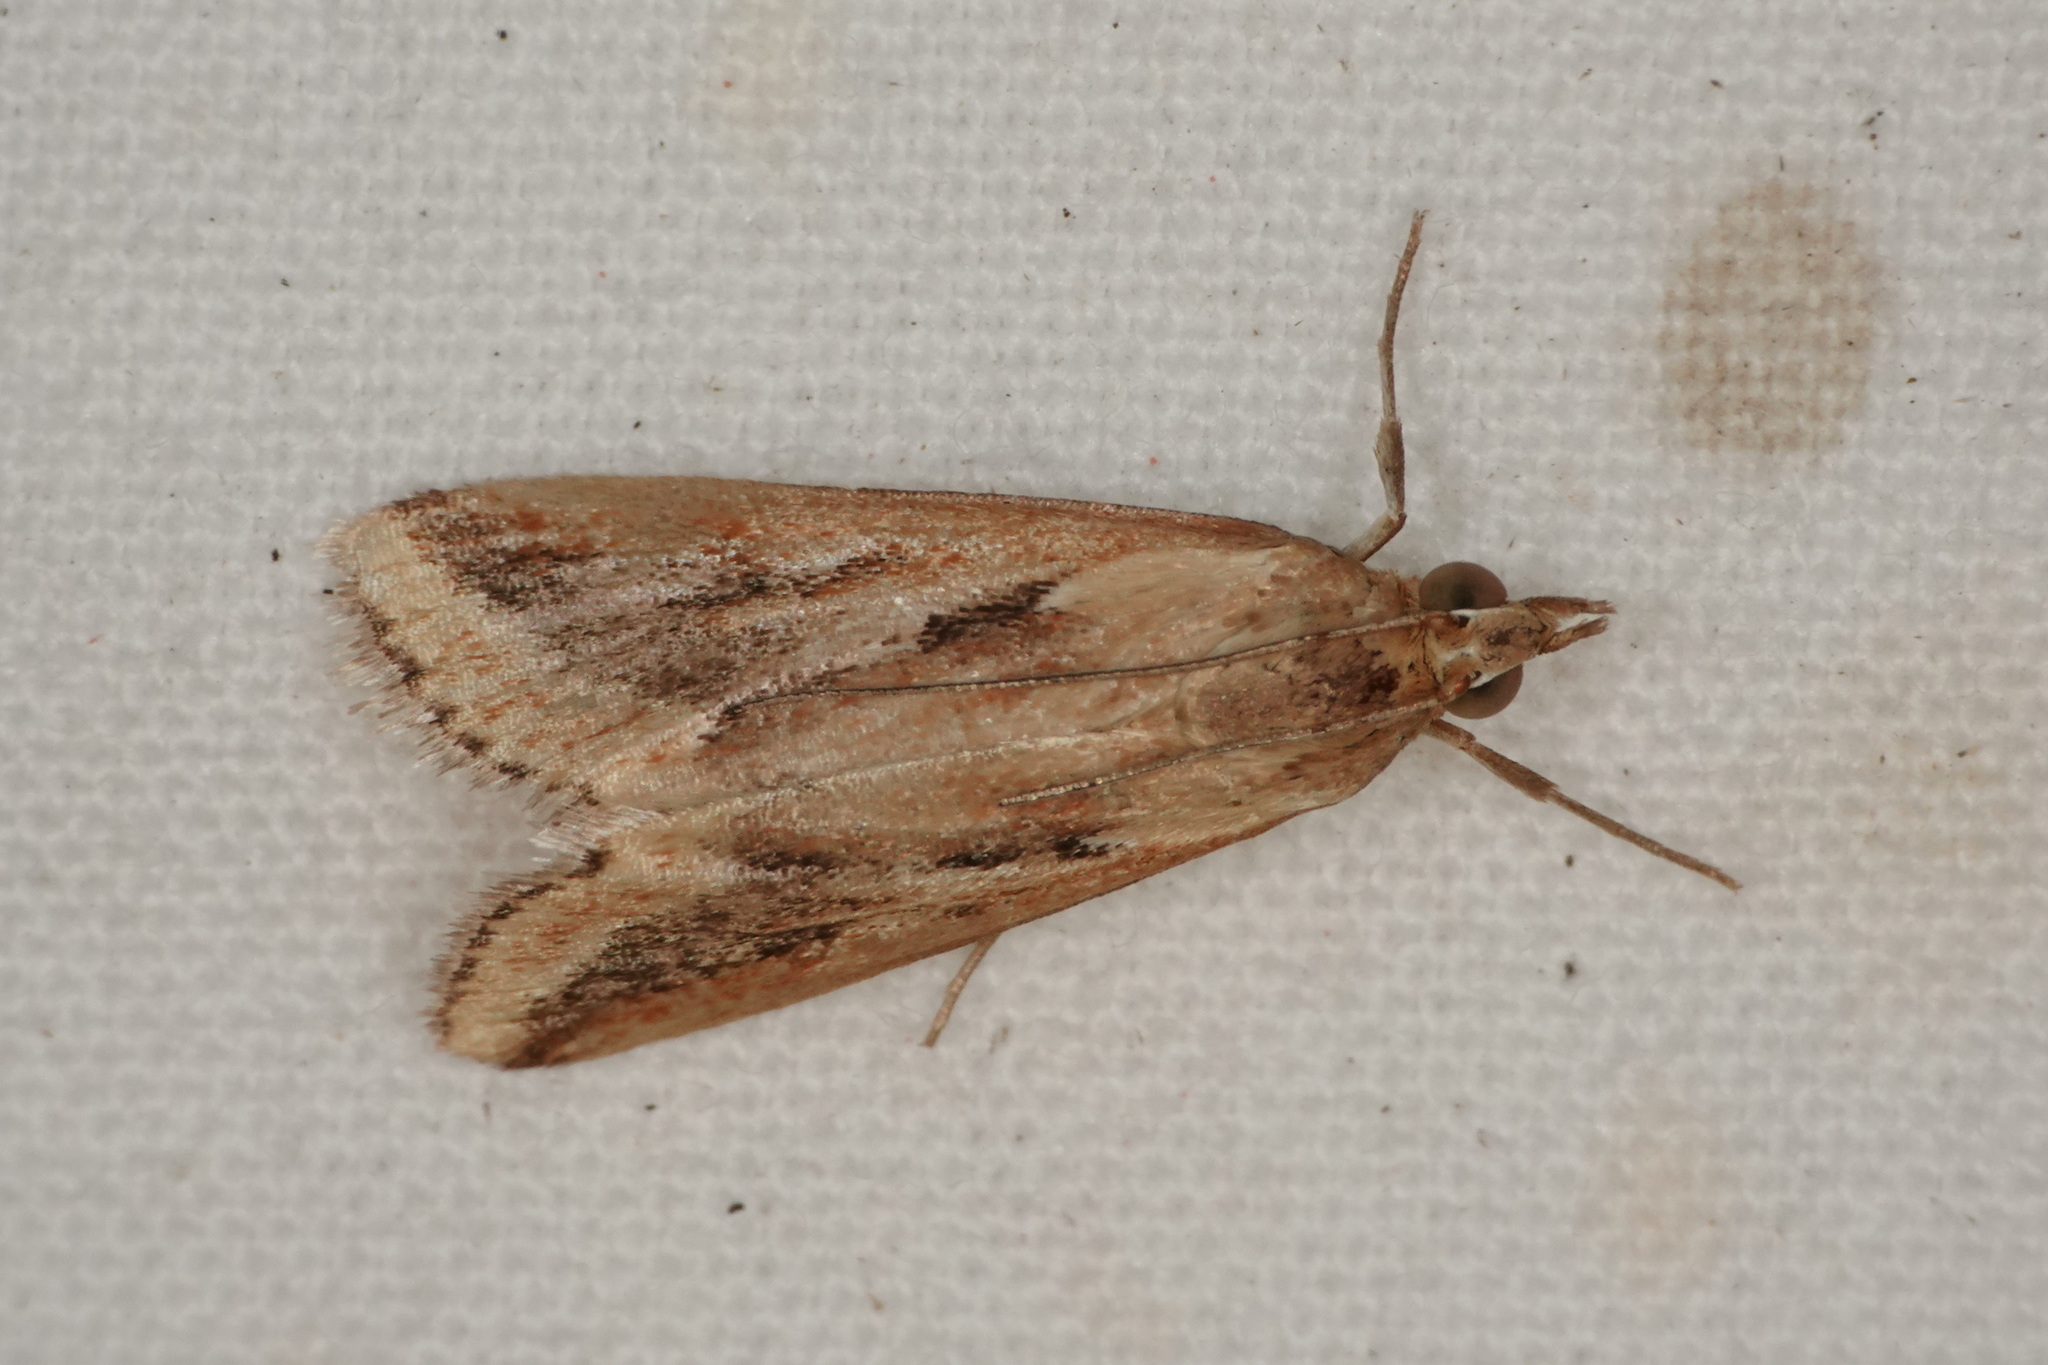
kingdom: Animalia
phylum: Arthropoda
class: Insecta
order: Lepidoptera
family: Crambidae
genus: Achyra
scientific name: Achyra massalis
